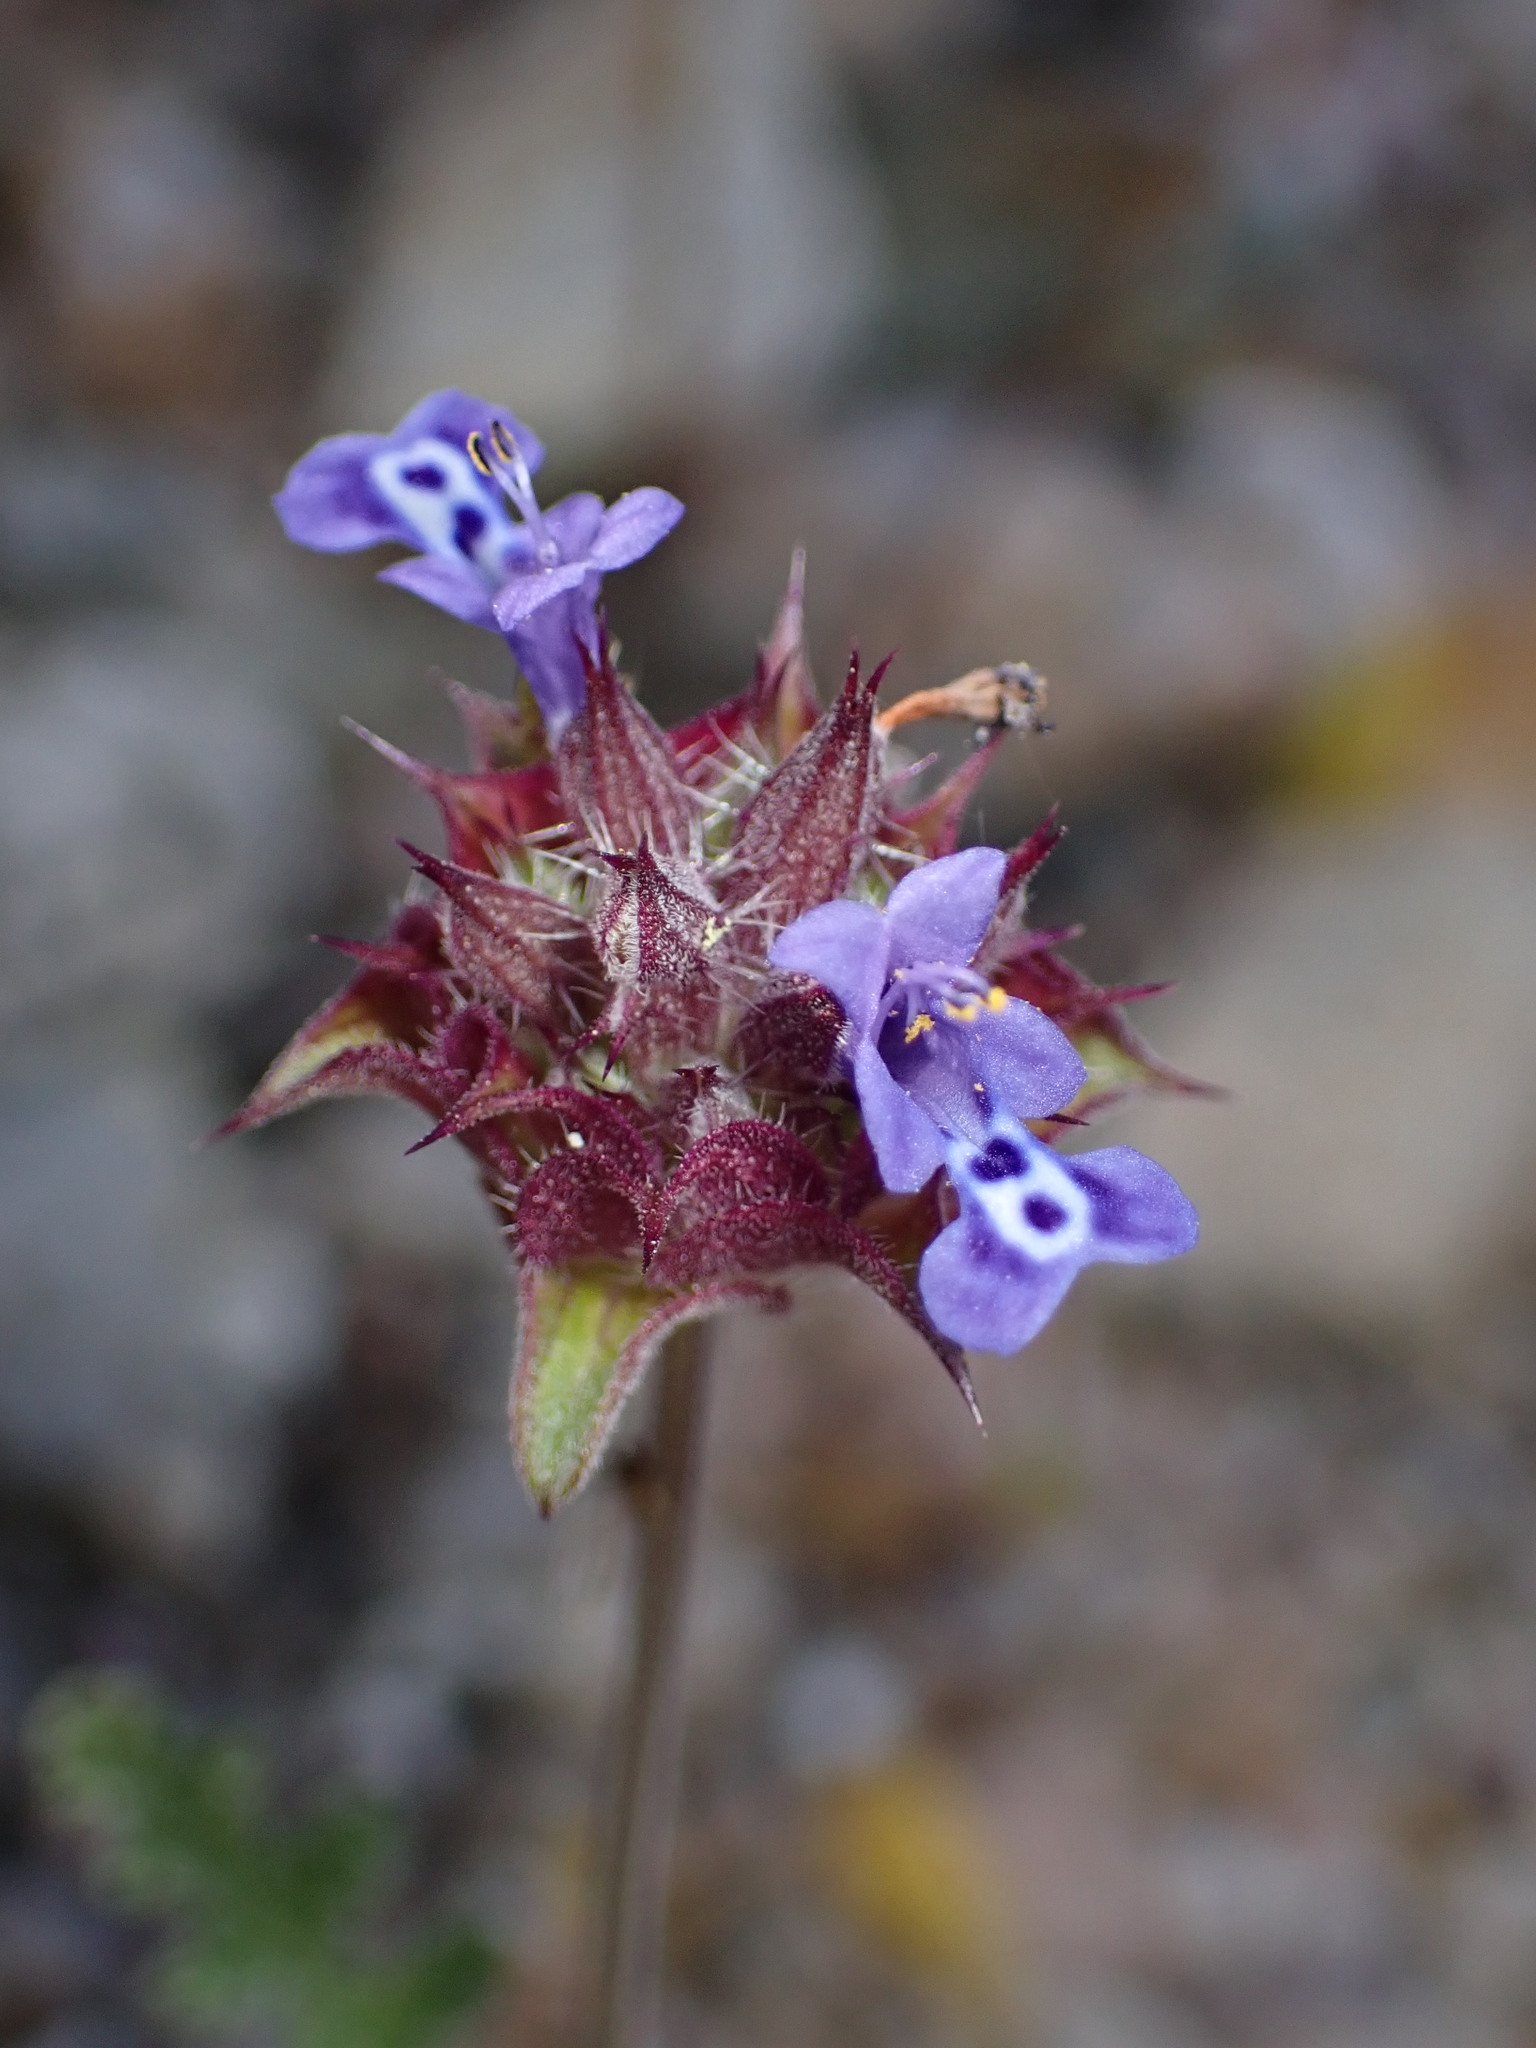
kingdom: Plantae
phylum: Tracheophyta
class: Magnoliopsida
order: Lamiales
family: Lamiaceae
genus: Salvia
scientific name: Salvia columbariae
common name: Chia
